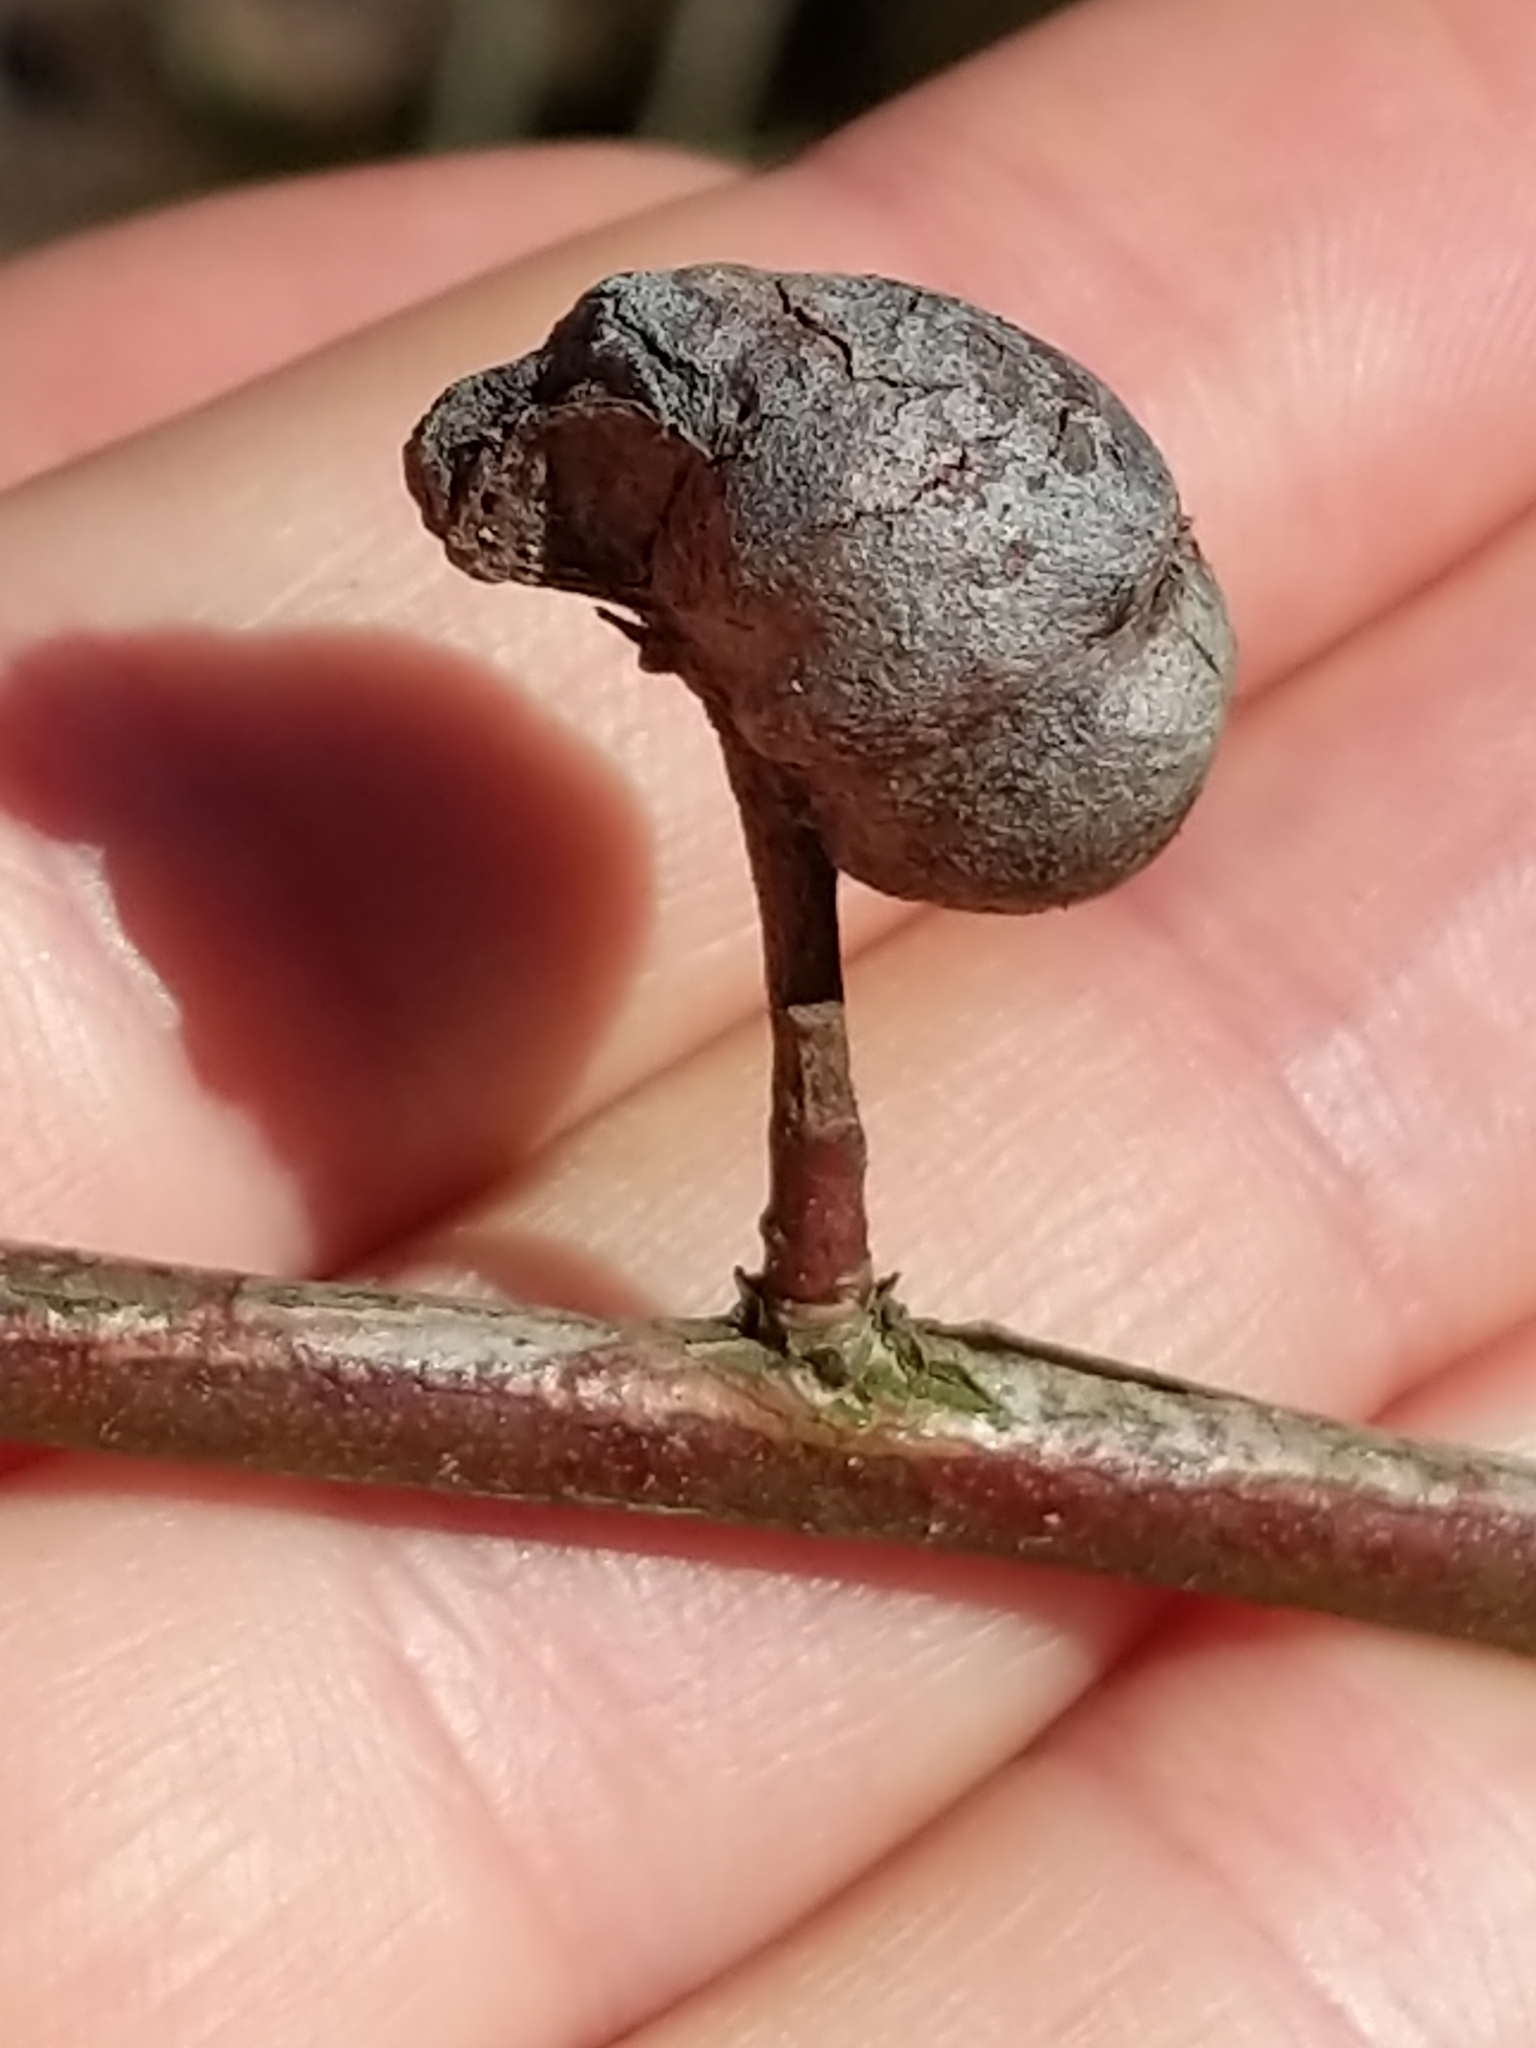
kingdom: Animalia
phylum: Arthropoda
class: Insecta
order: Hymenoptera
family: Pteromalidae
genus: Hemadas
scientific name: Hemadas nubilipennis
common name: Blueberry stem gall wasp
